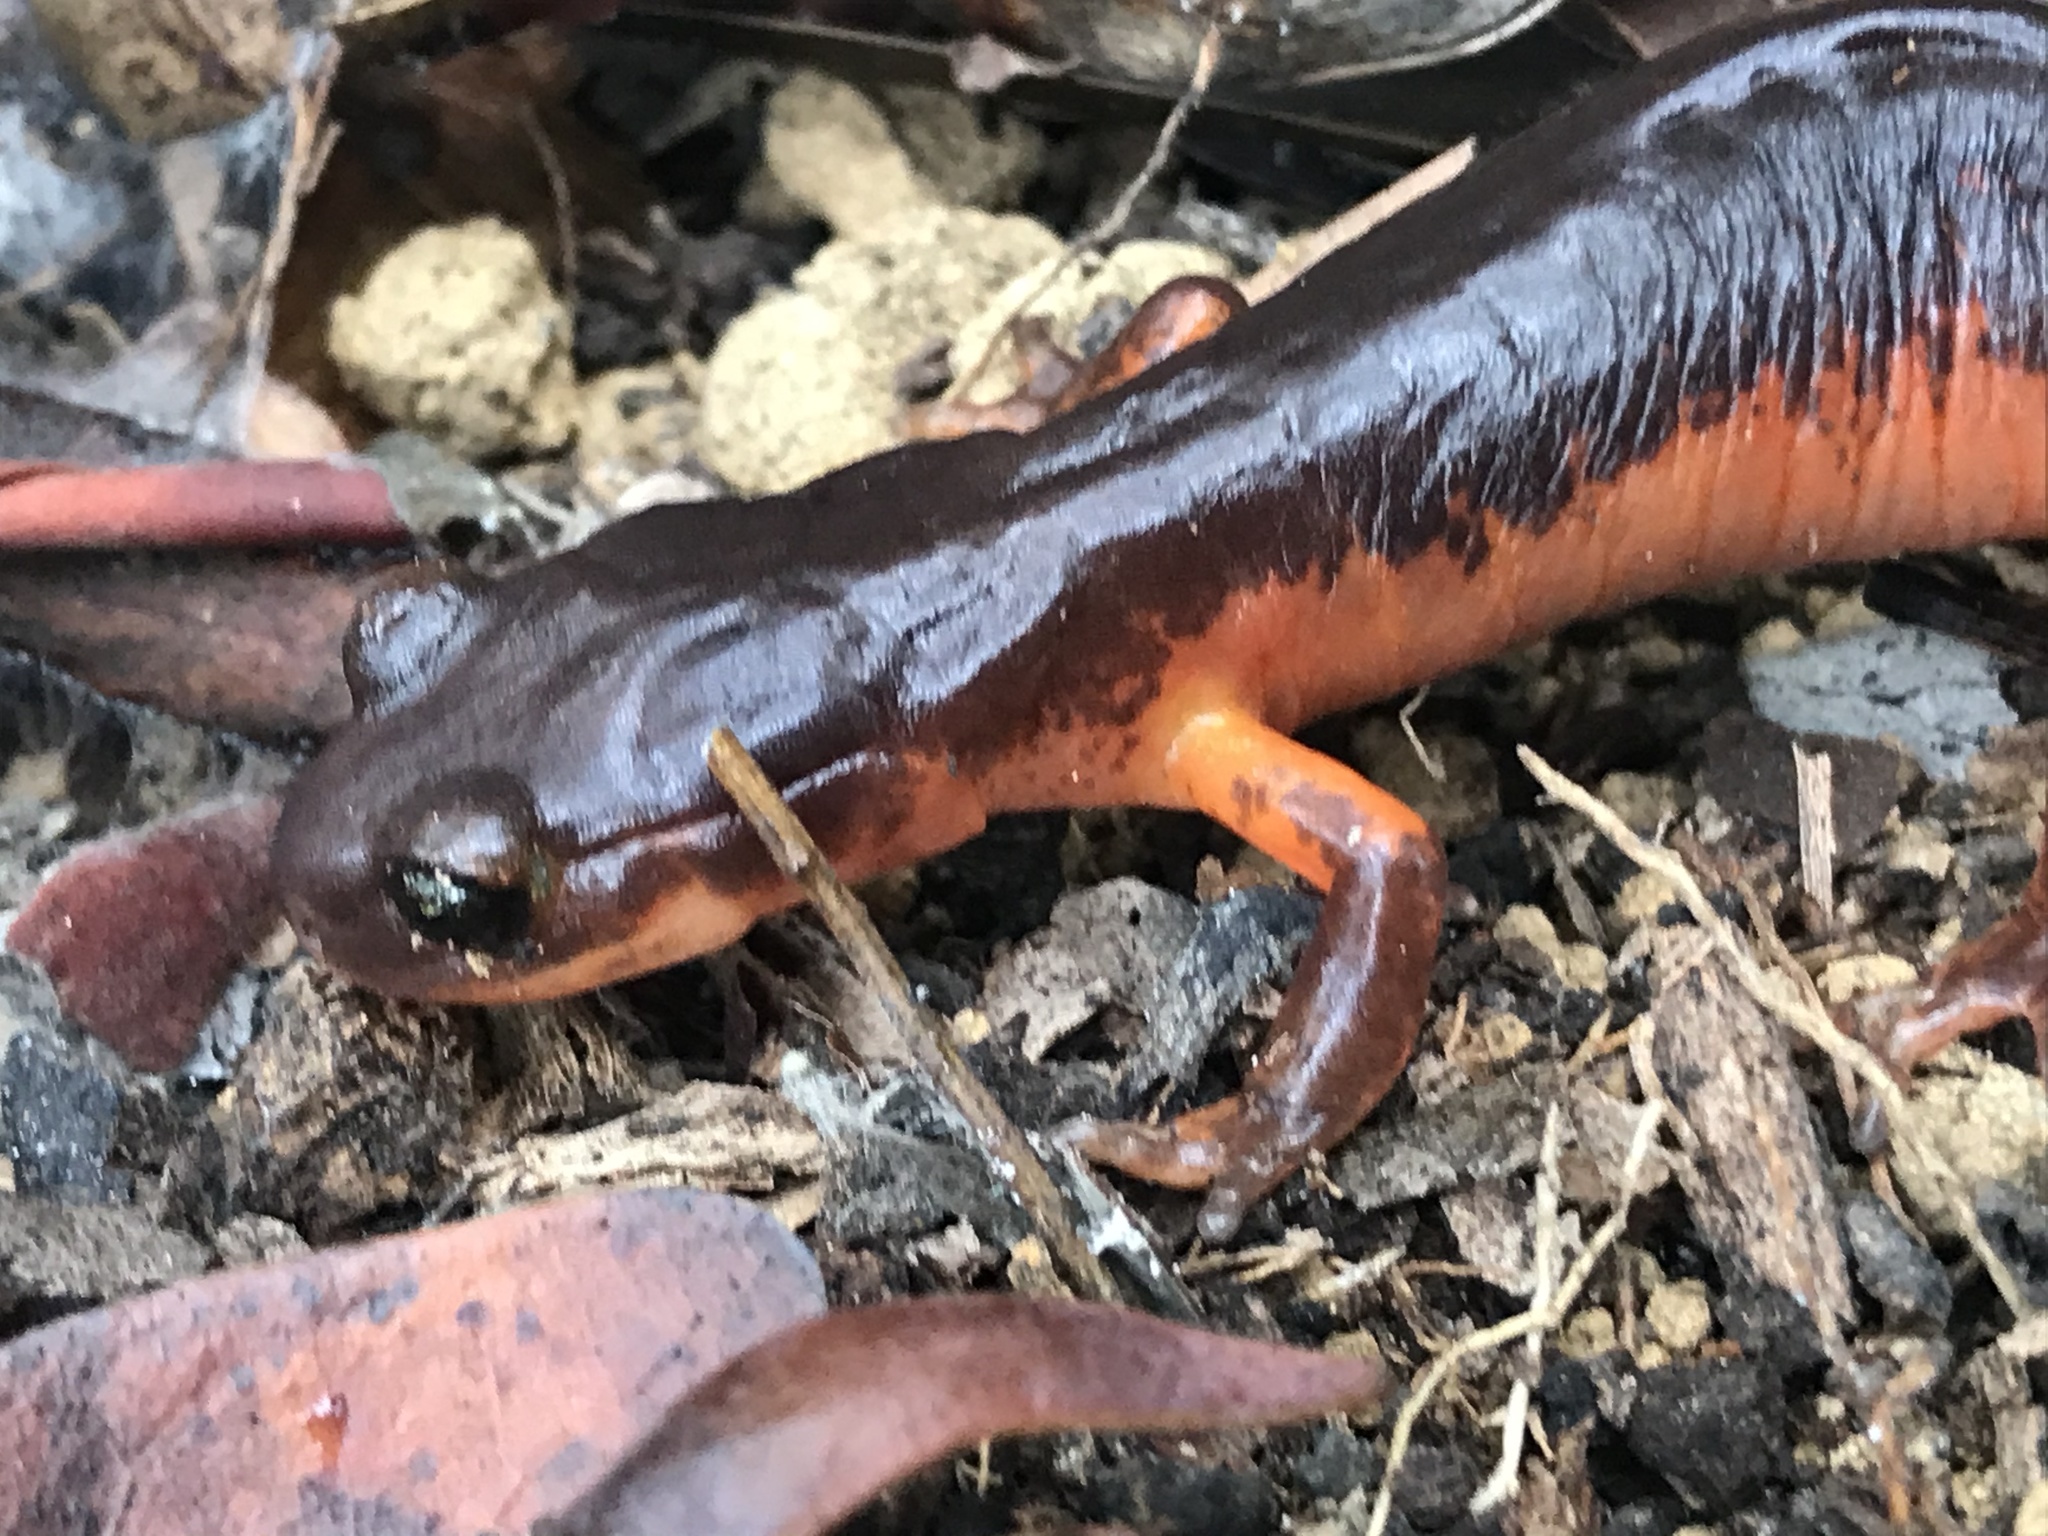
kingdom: Animalia
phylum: Chordata
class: Amphibia
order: Caudata
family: Plethodontidae
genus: Ensatina
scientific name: Ensatina eschscholtzii
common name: Ensatina
